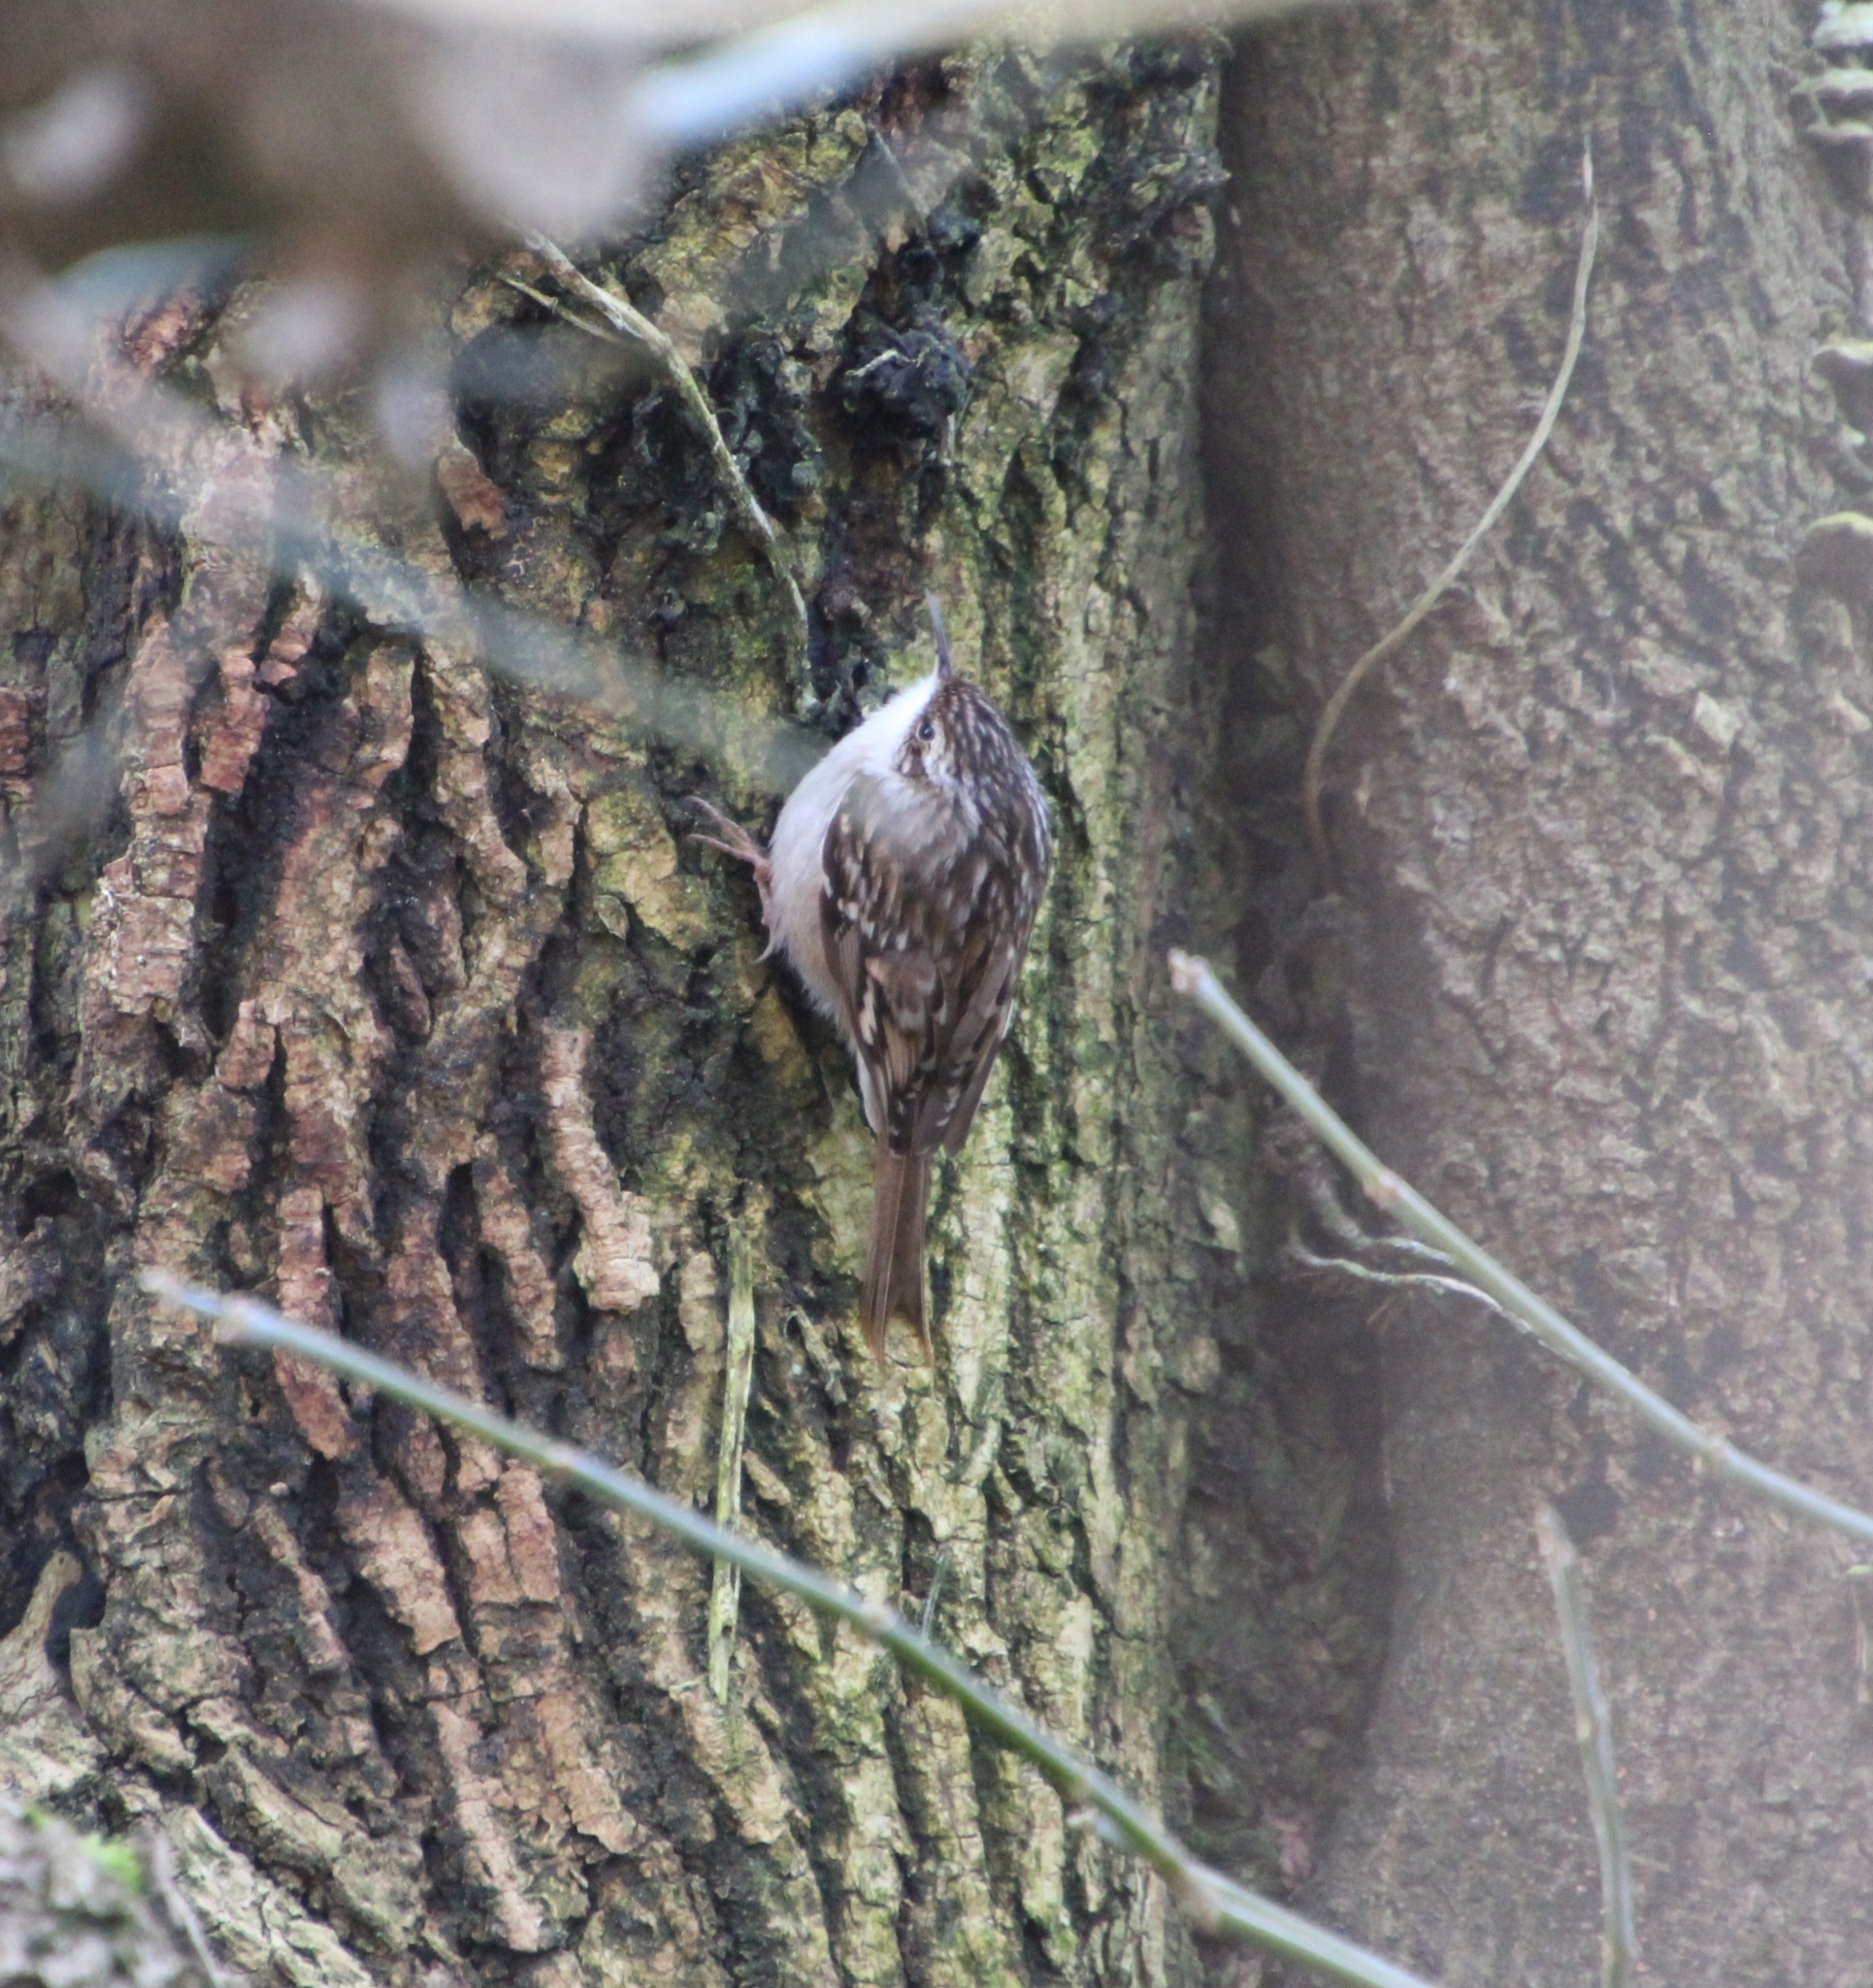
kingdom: Animalia
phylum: Chordata
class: Aves
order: Passeriformes
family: Certhiidae
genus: Certhia
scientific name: Certhia brachydactyla
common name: Short-toed treecreeper
